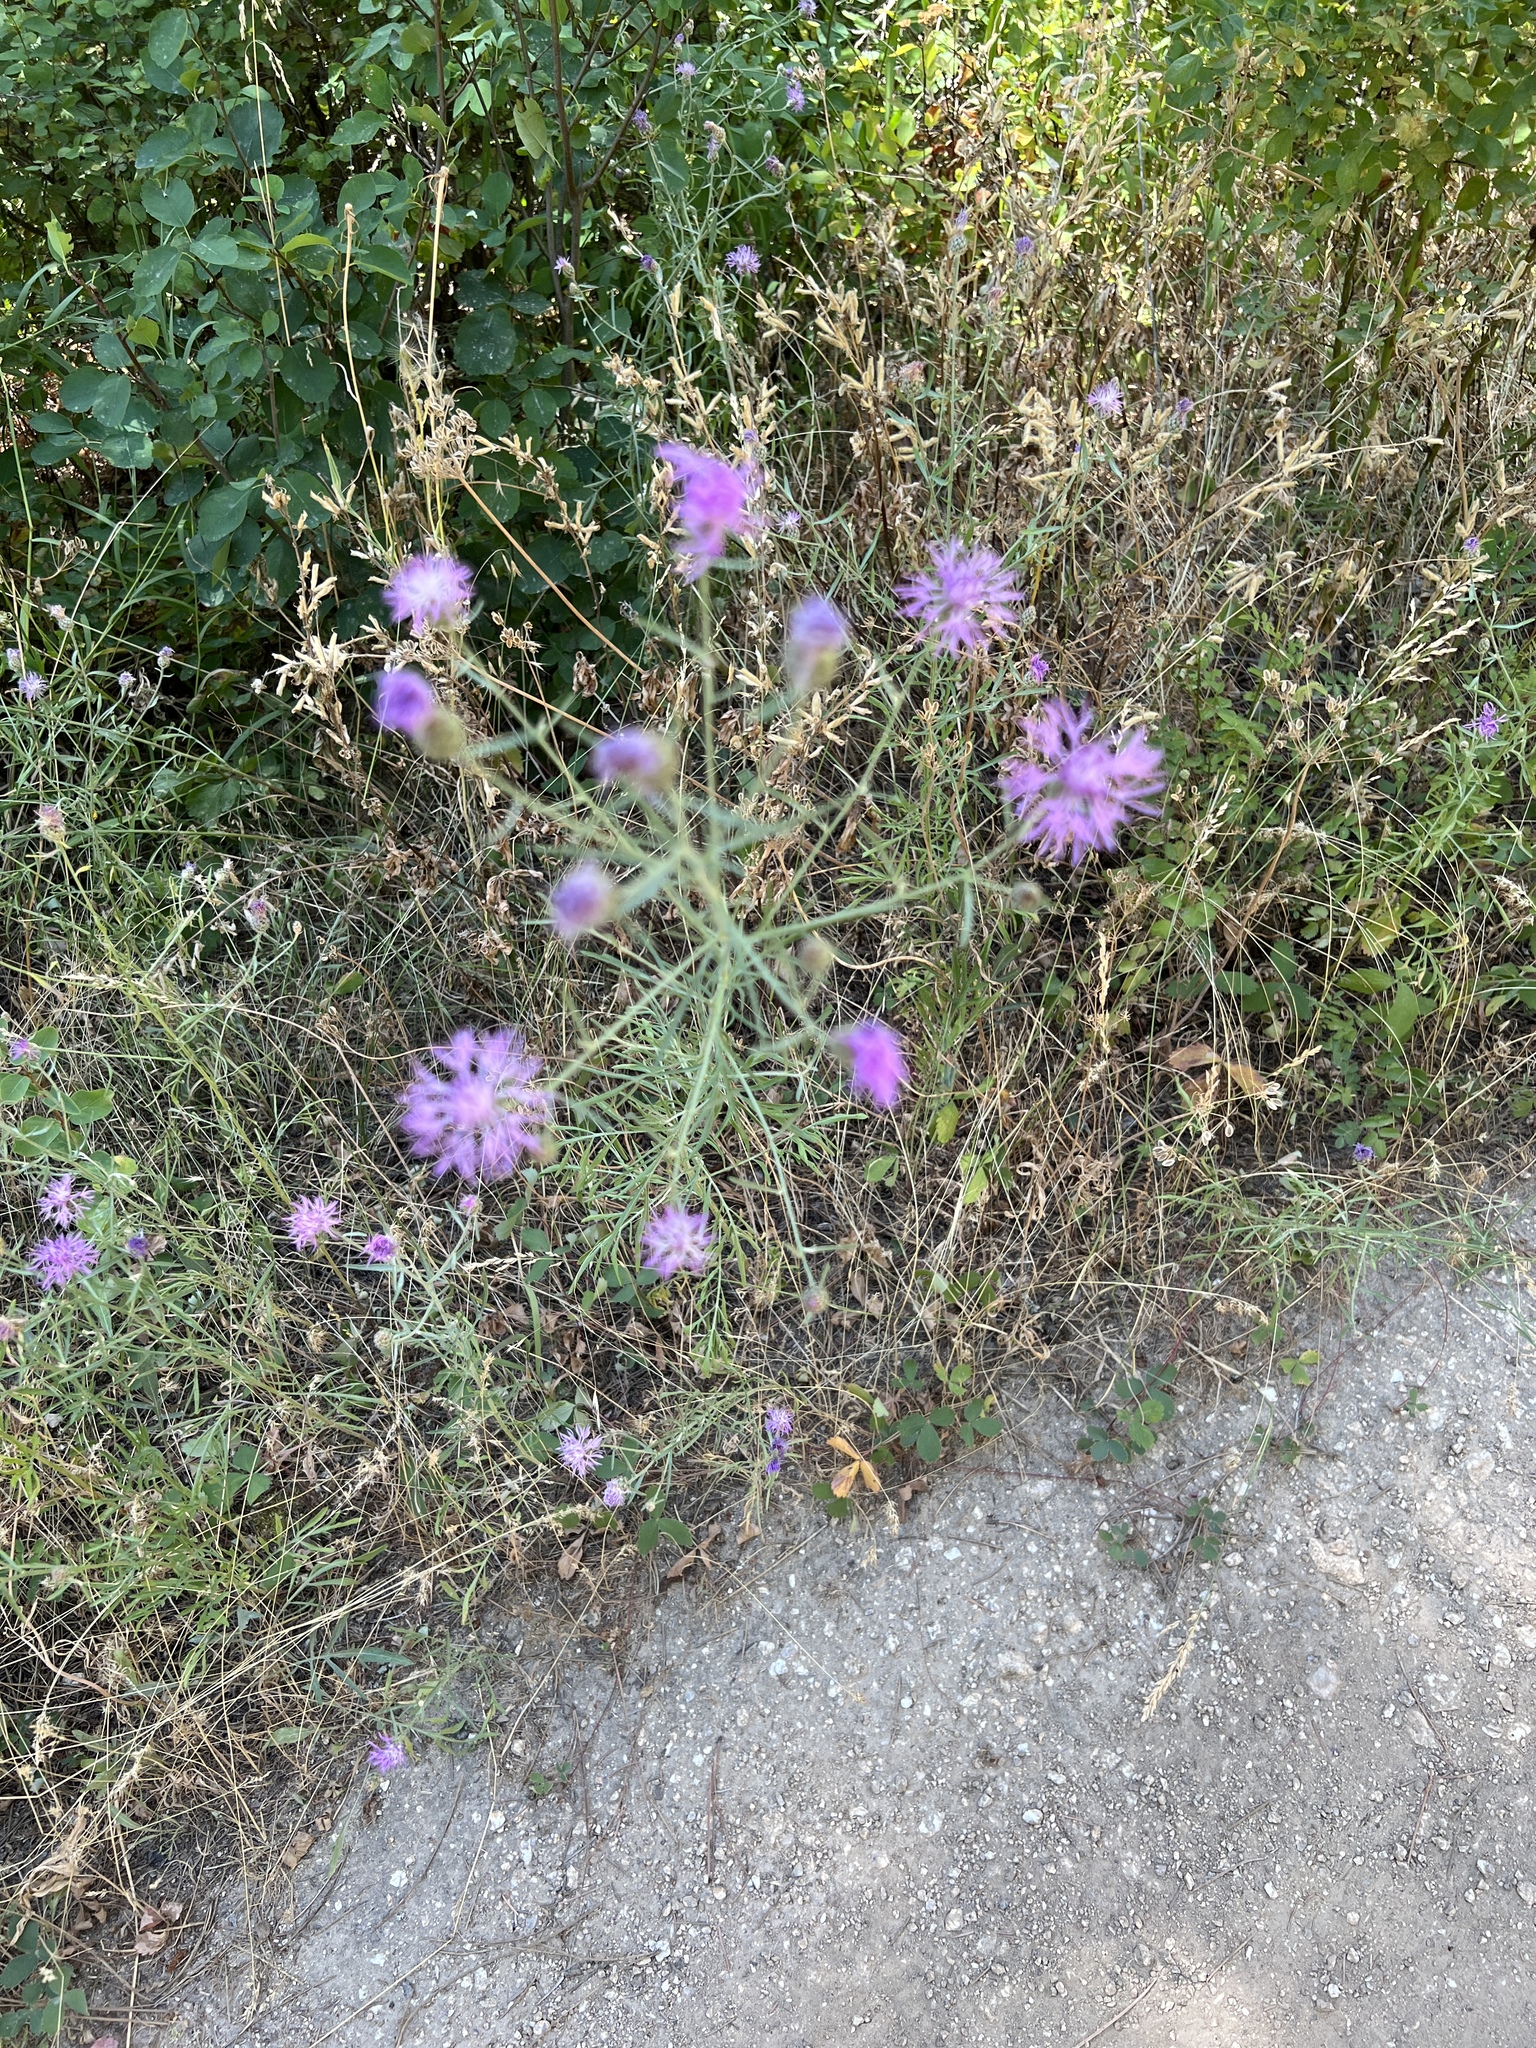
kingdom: Plantae
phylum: Tracheophyta
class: Magnoliopsida
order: Asterales
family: Asteraceae
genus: Centaurea
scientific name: Centaurea stoebe
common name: Spotted knapweed
